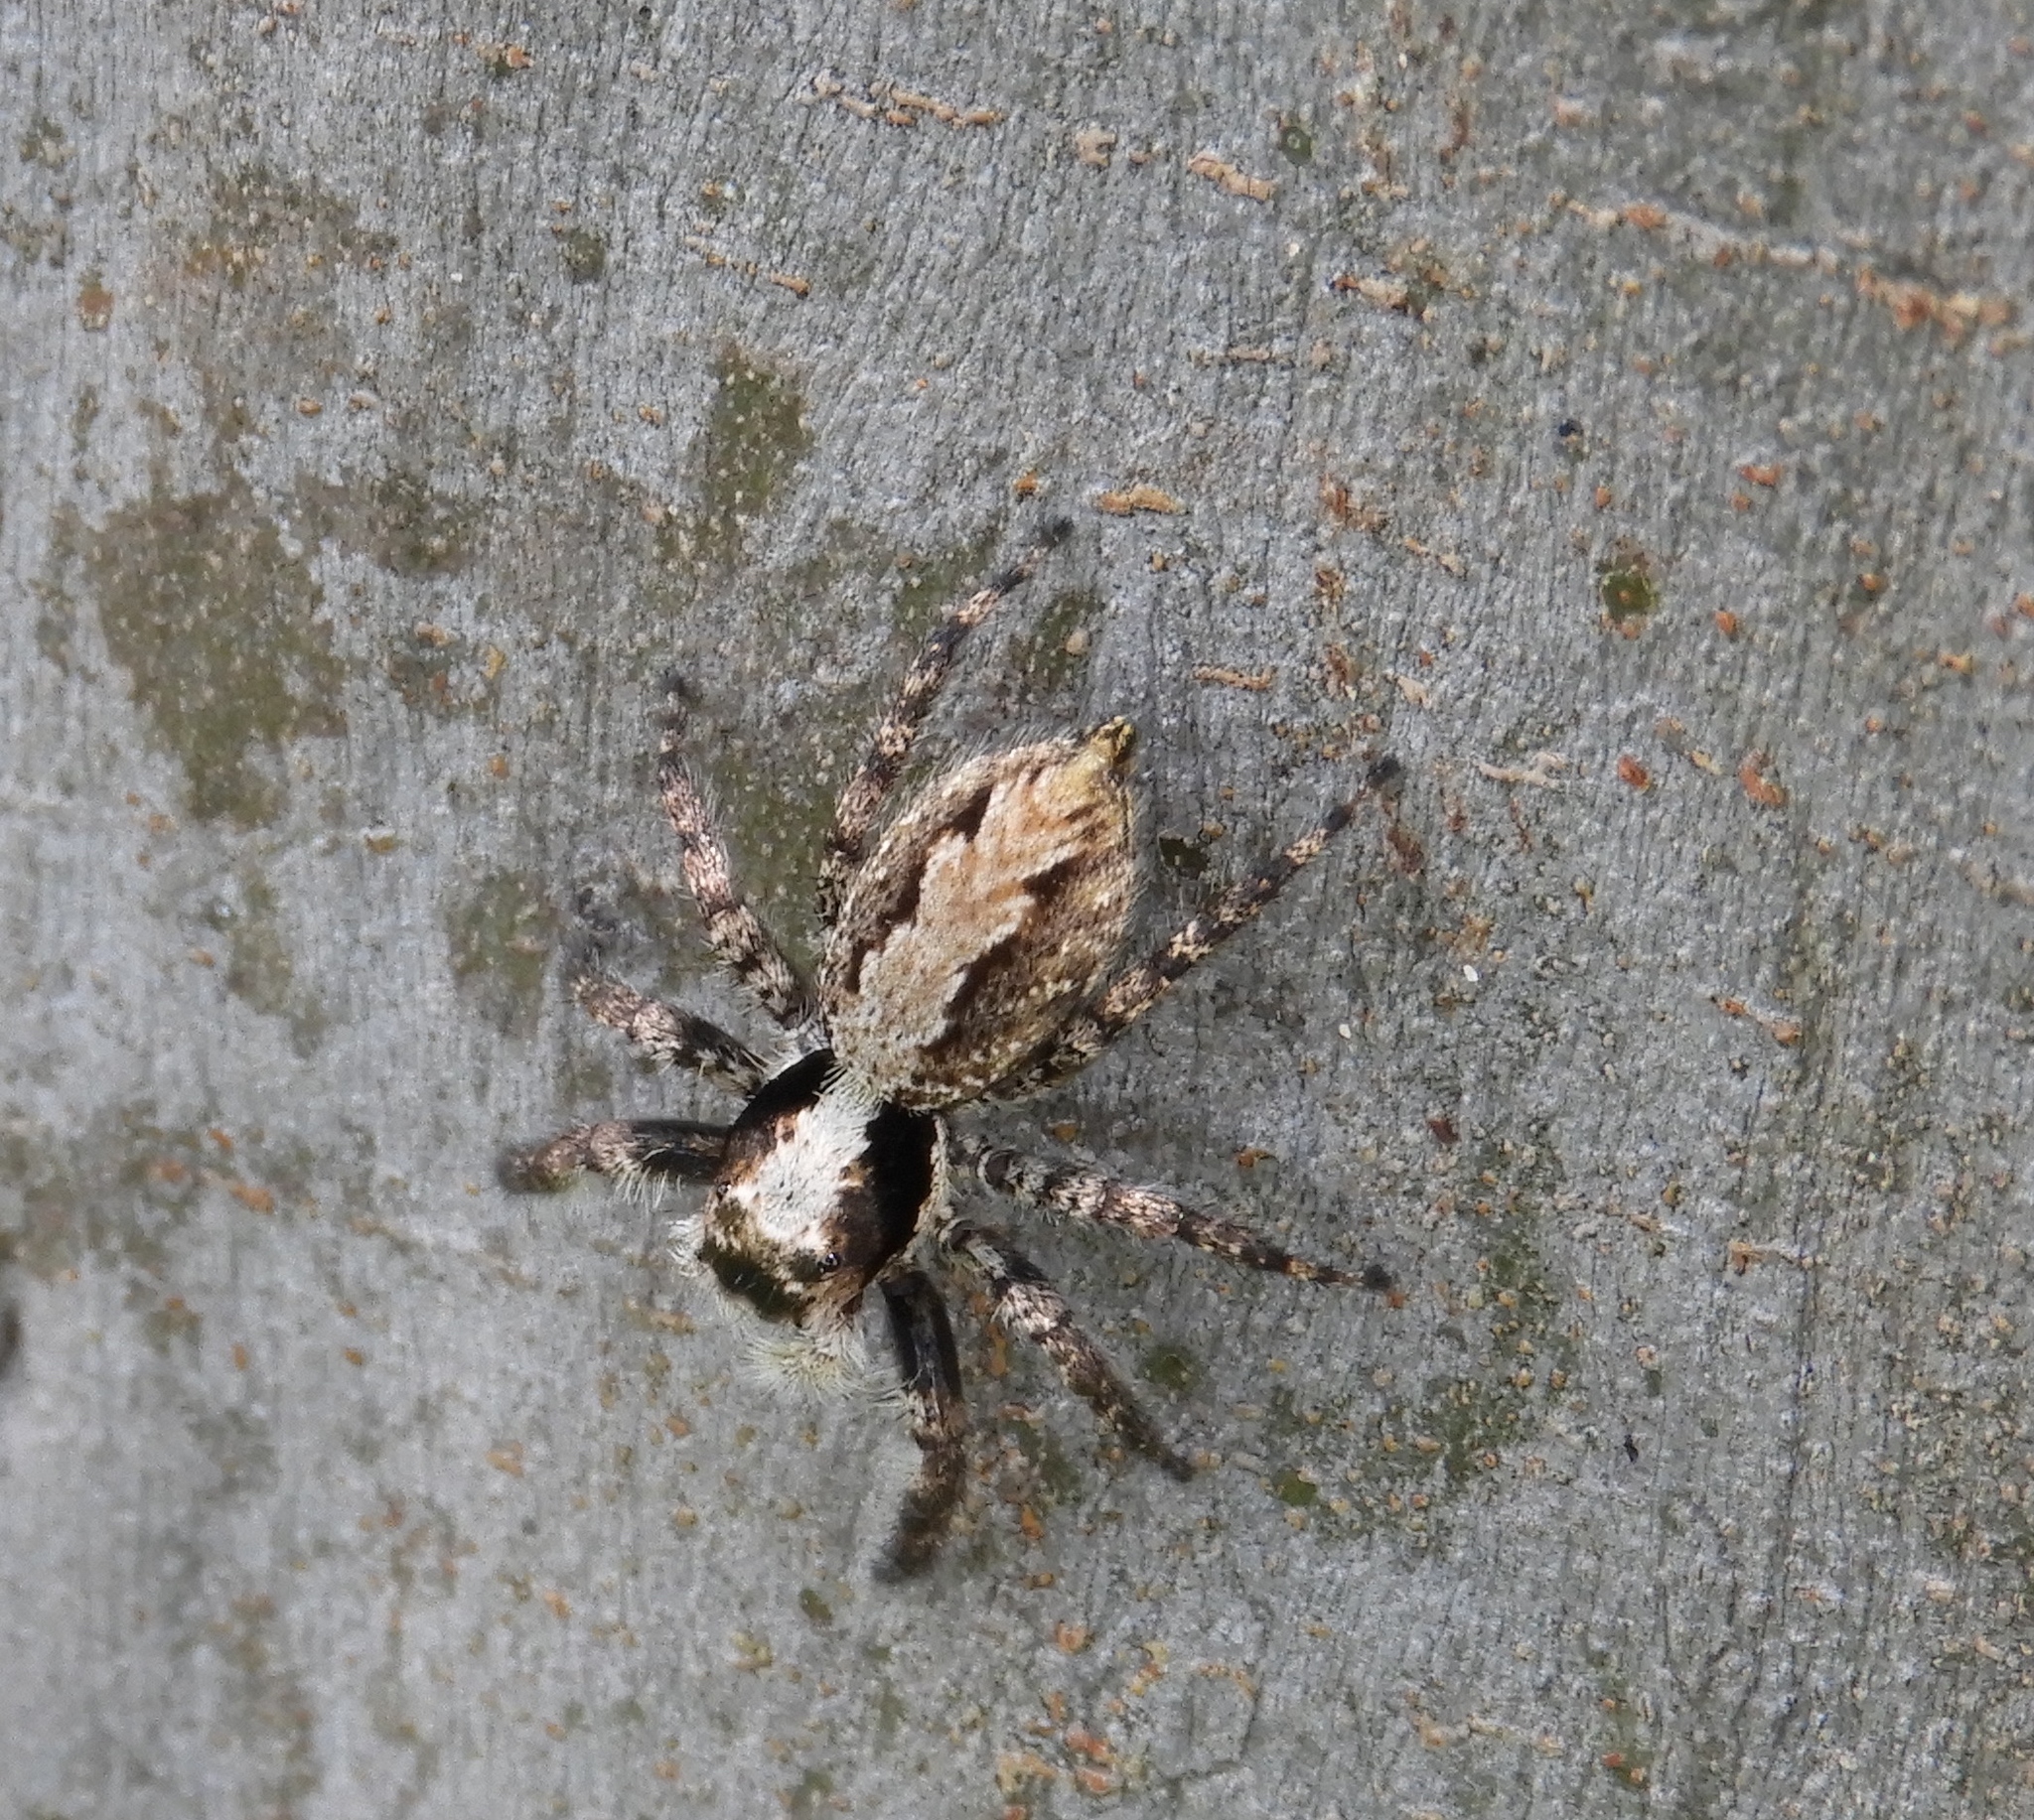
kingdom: Animalia
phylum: Arthropoda
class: Arachnida
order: Araneae
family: Salticidae
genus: Balmaceda
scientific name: Balmaceda
